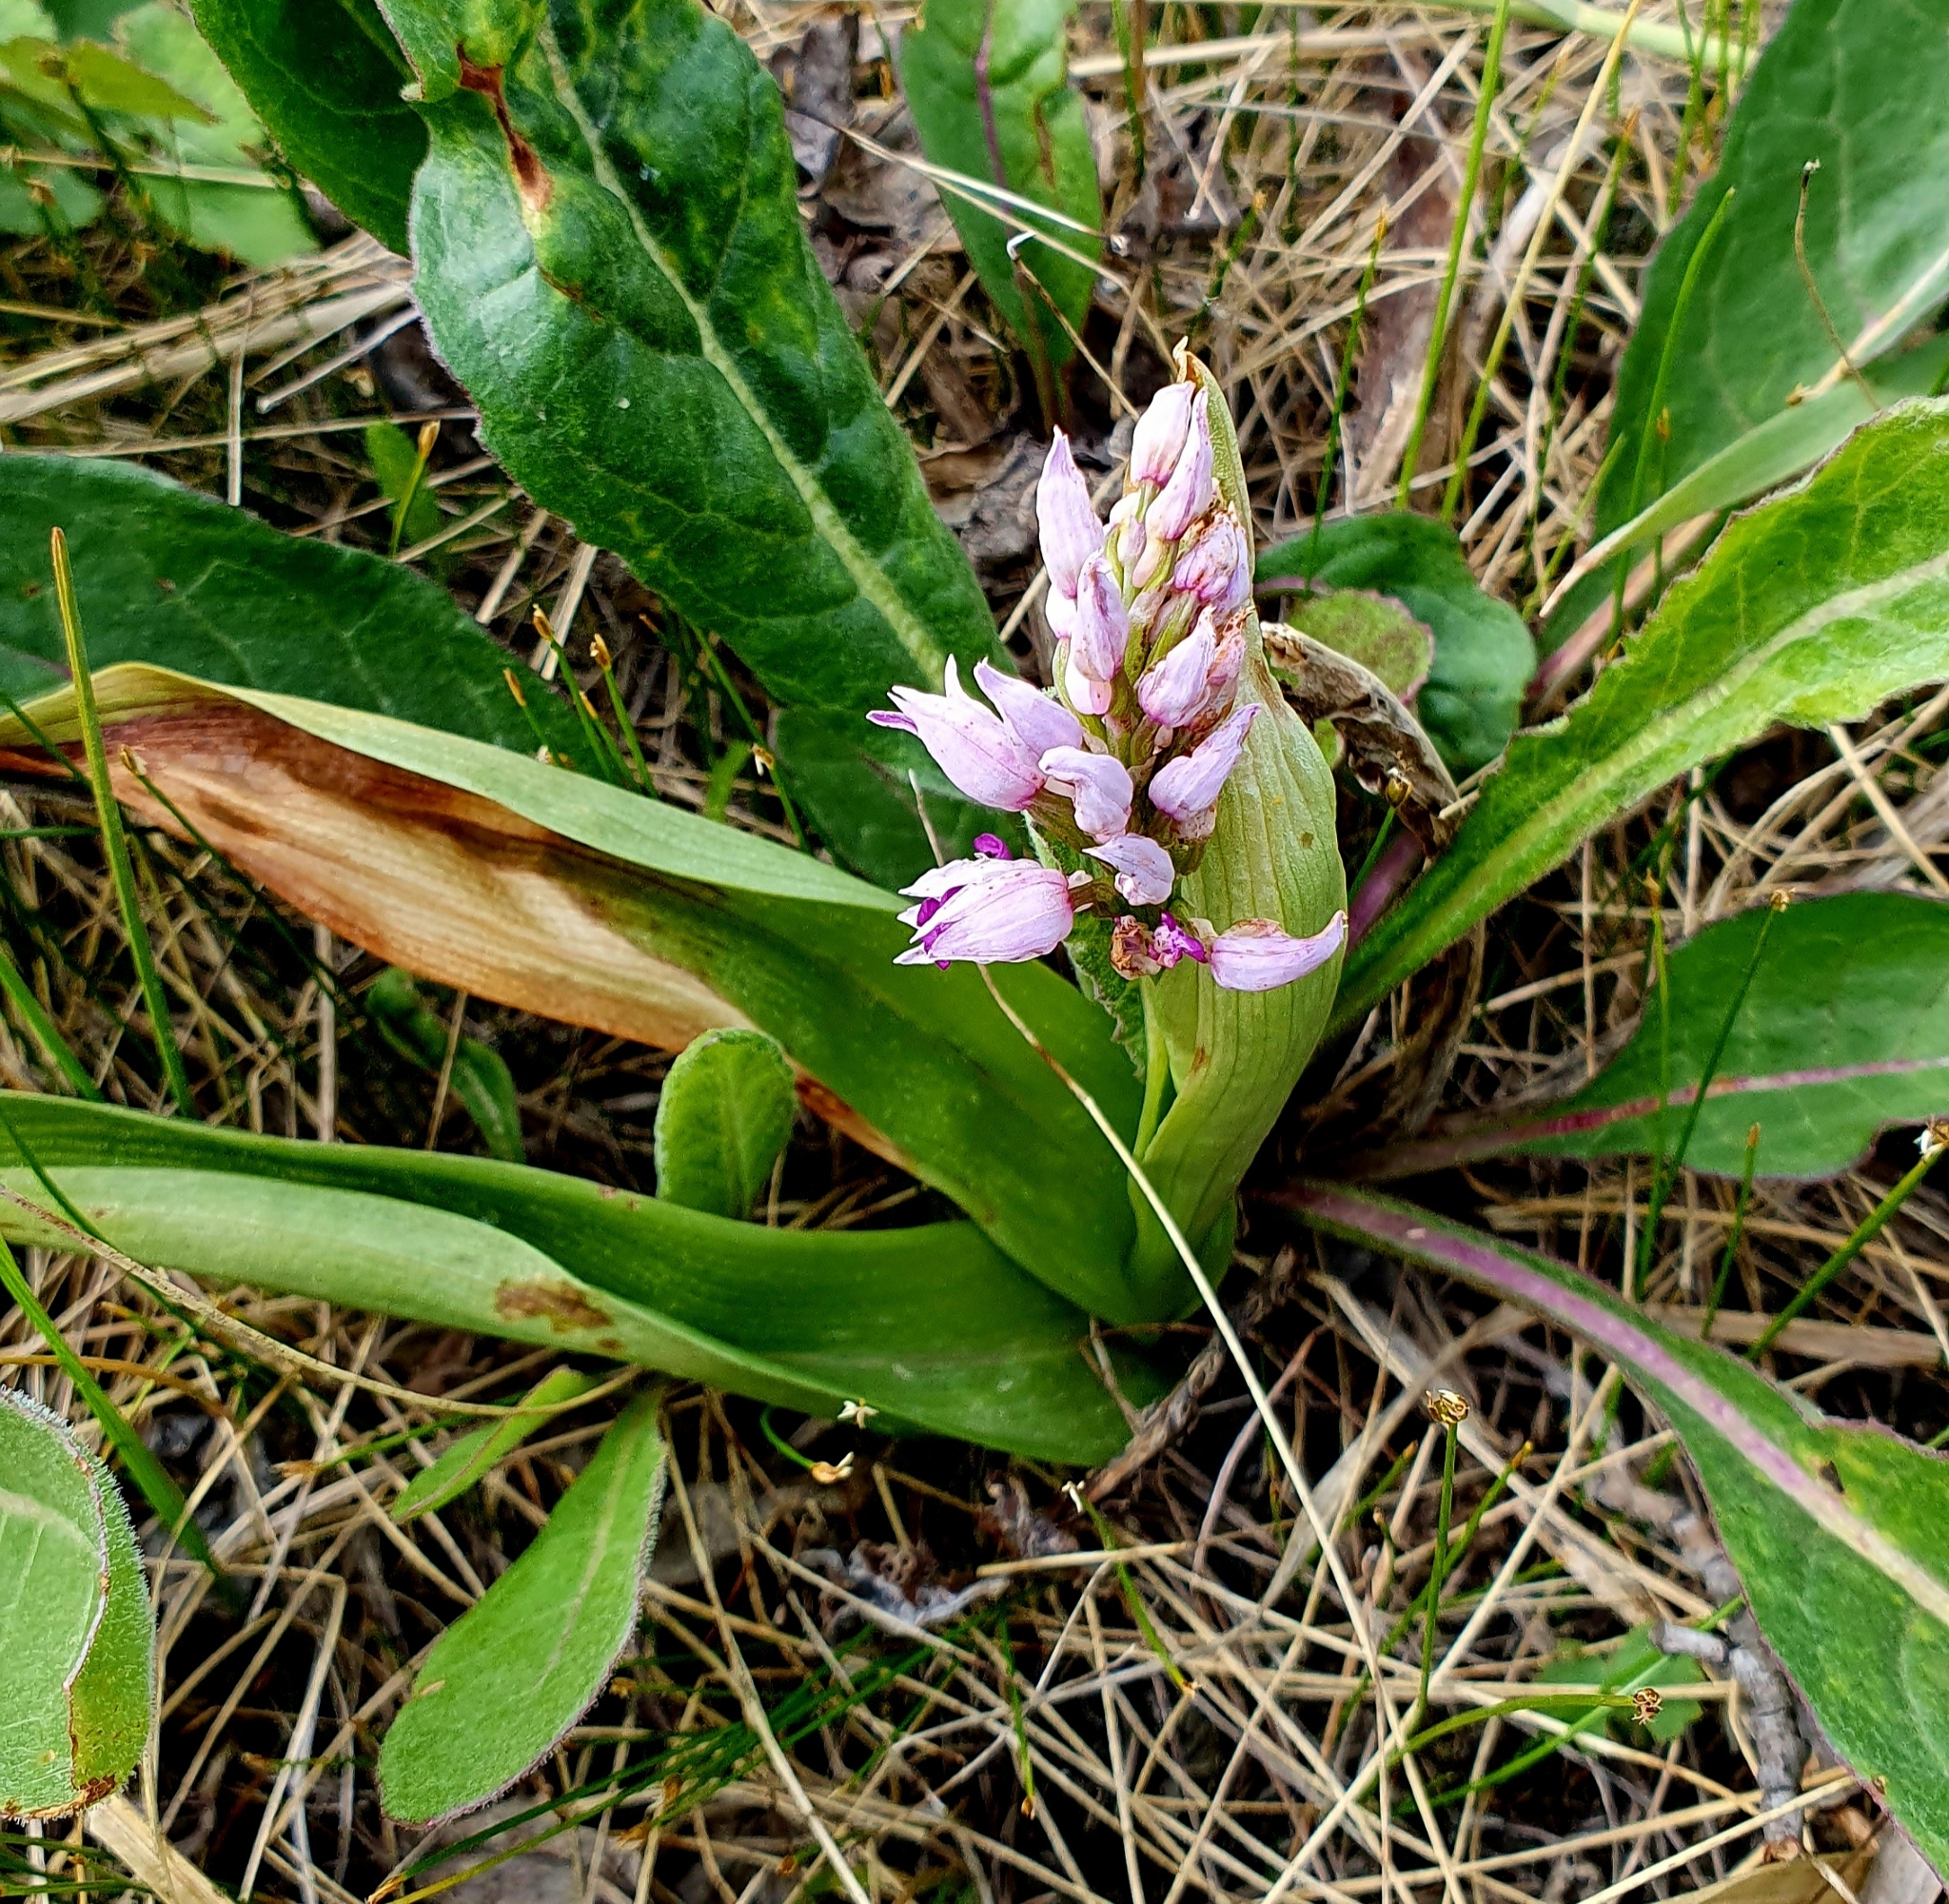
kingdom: Plantae
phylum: Tracheophyta
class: Liliopsida
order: Asparagales
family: Orchidaceae
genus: Orchis
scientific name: Orchis militaris
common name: Military orchid
